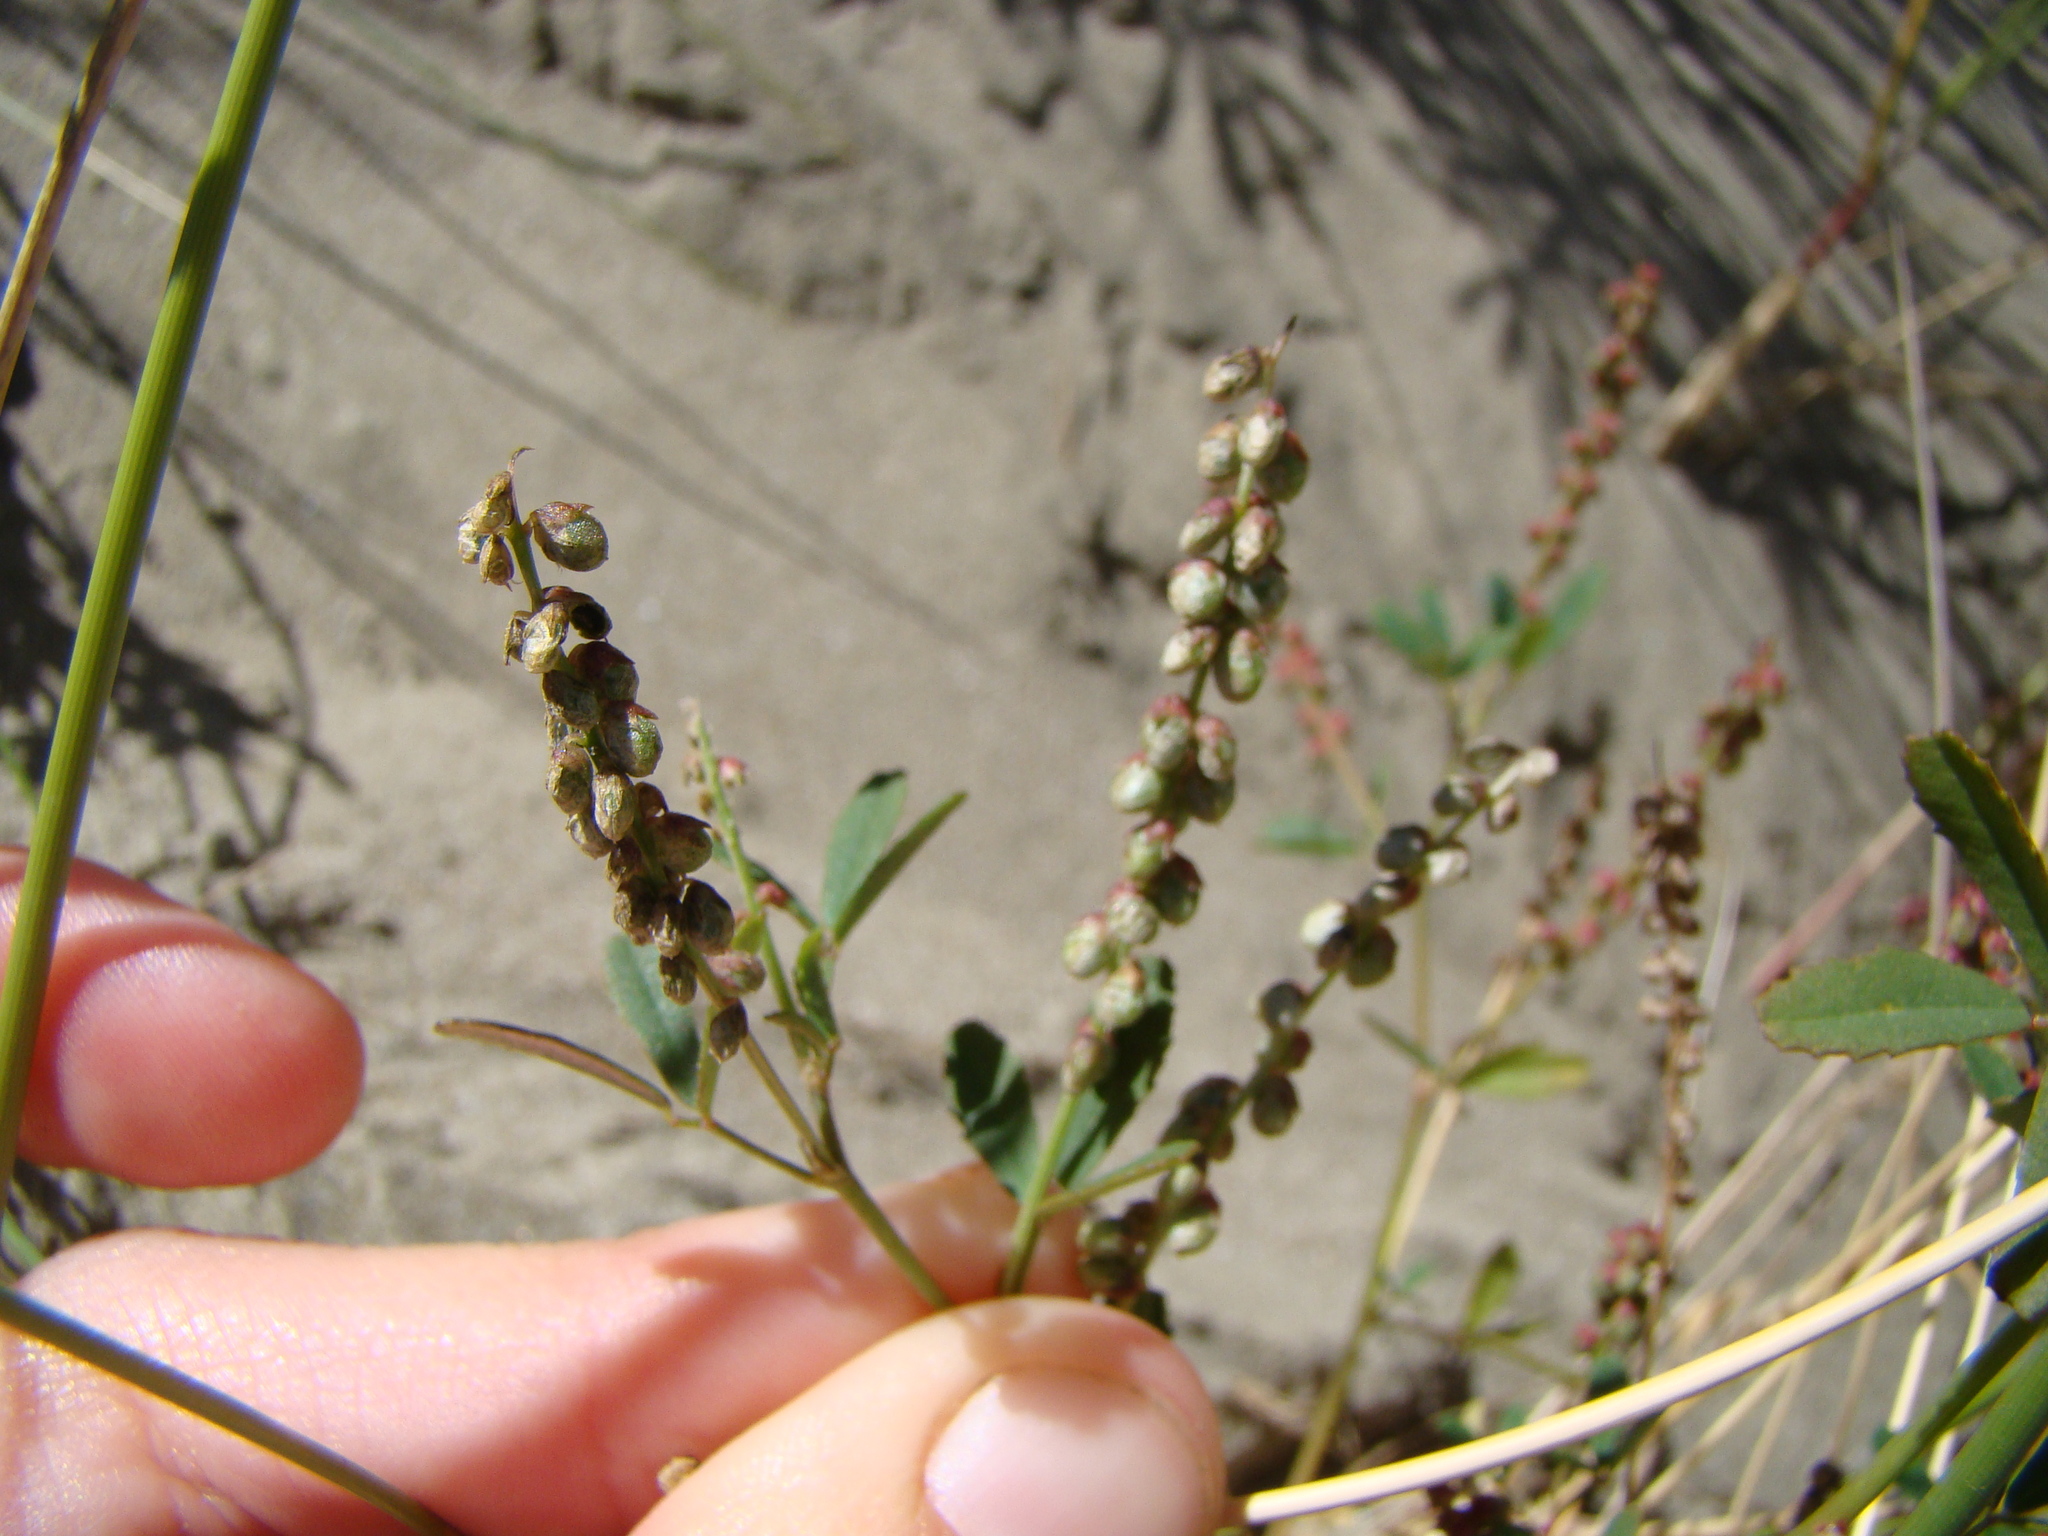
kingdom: Plantae
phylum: Tracheophyta
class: Magnoliopsida
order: Fabales
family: Fabaceae
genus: Melilotus
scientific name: Melilotus indicus
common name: Small melilot
